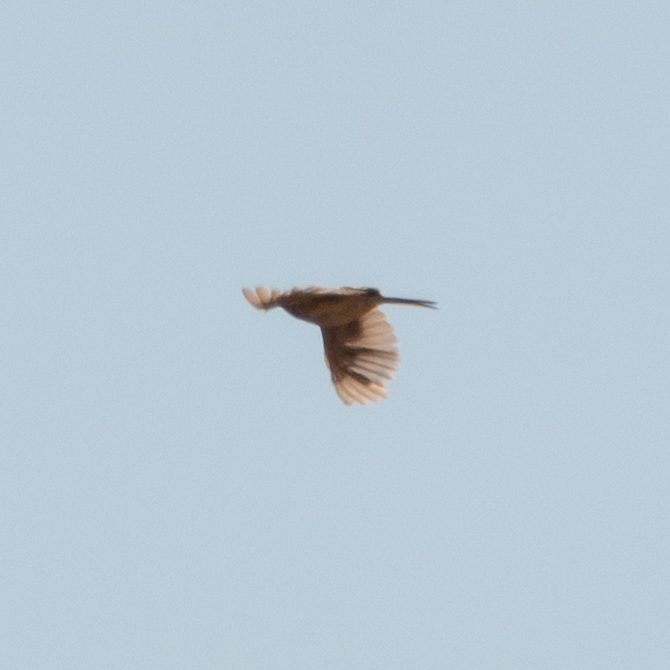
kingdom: Animalia
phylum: Chordata
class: Aves
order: Passeriformes
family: Alaudidae
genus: Alauda
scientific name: Alauda arvensis
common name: Eurasian skylark
